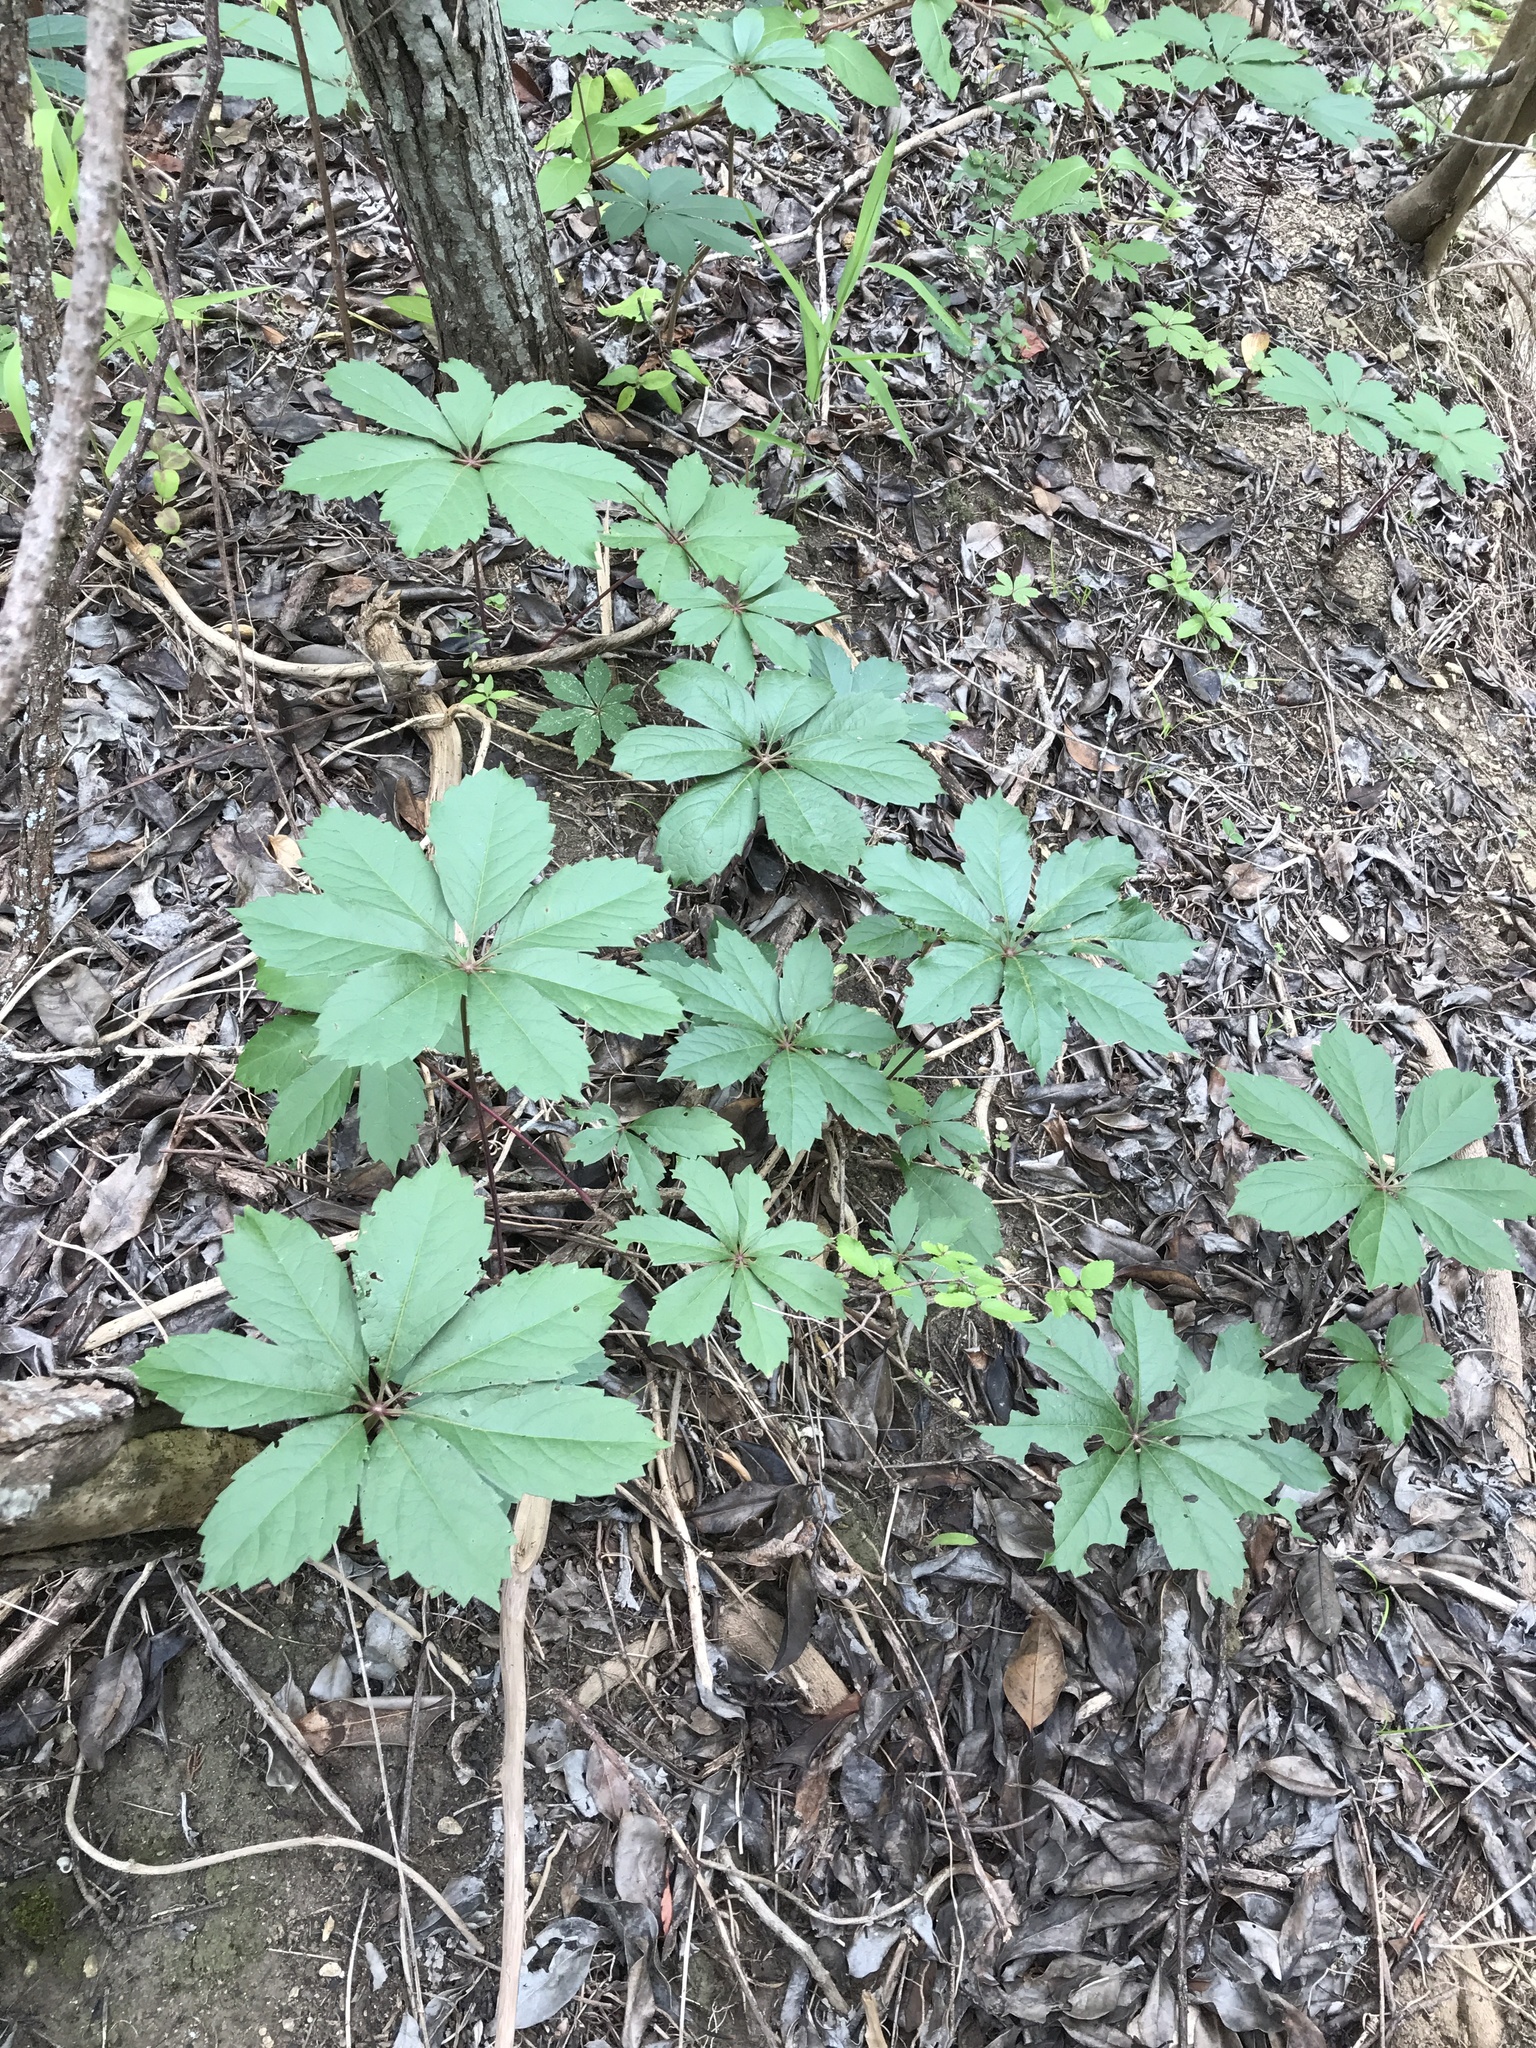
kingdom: Plantae
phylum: Tracheophyta
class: Magnoliopsida
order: Vitales
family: Vitaceae
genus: Parthenocissus
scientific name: Parthenocissus heptaphylla
